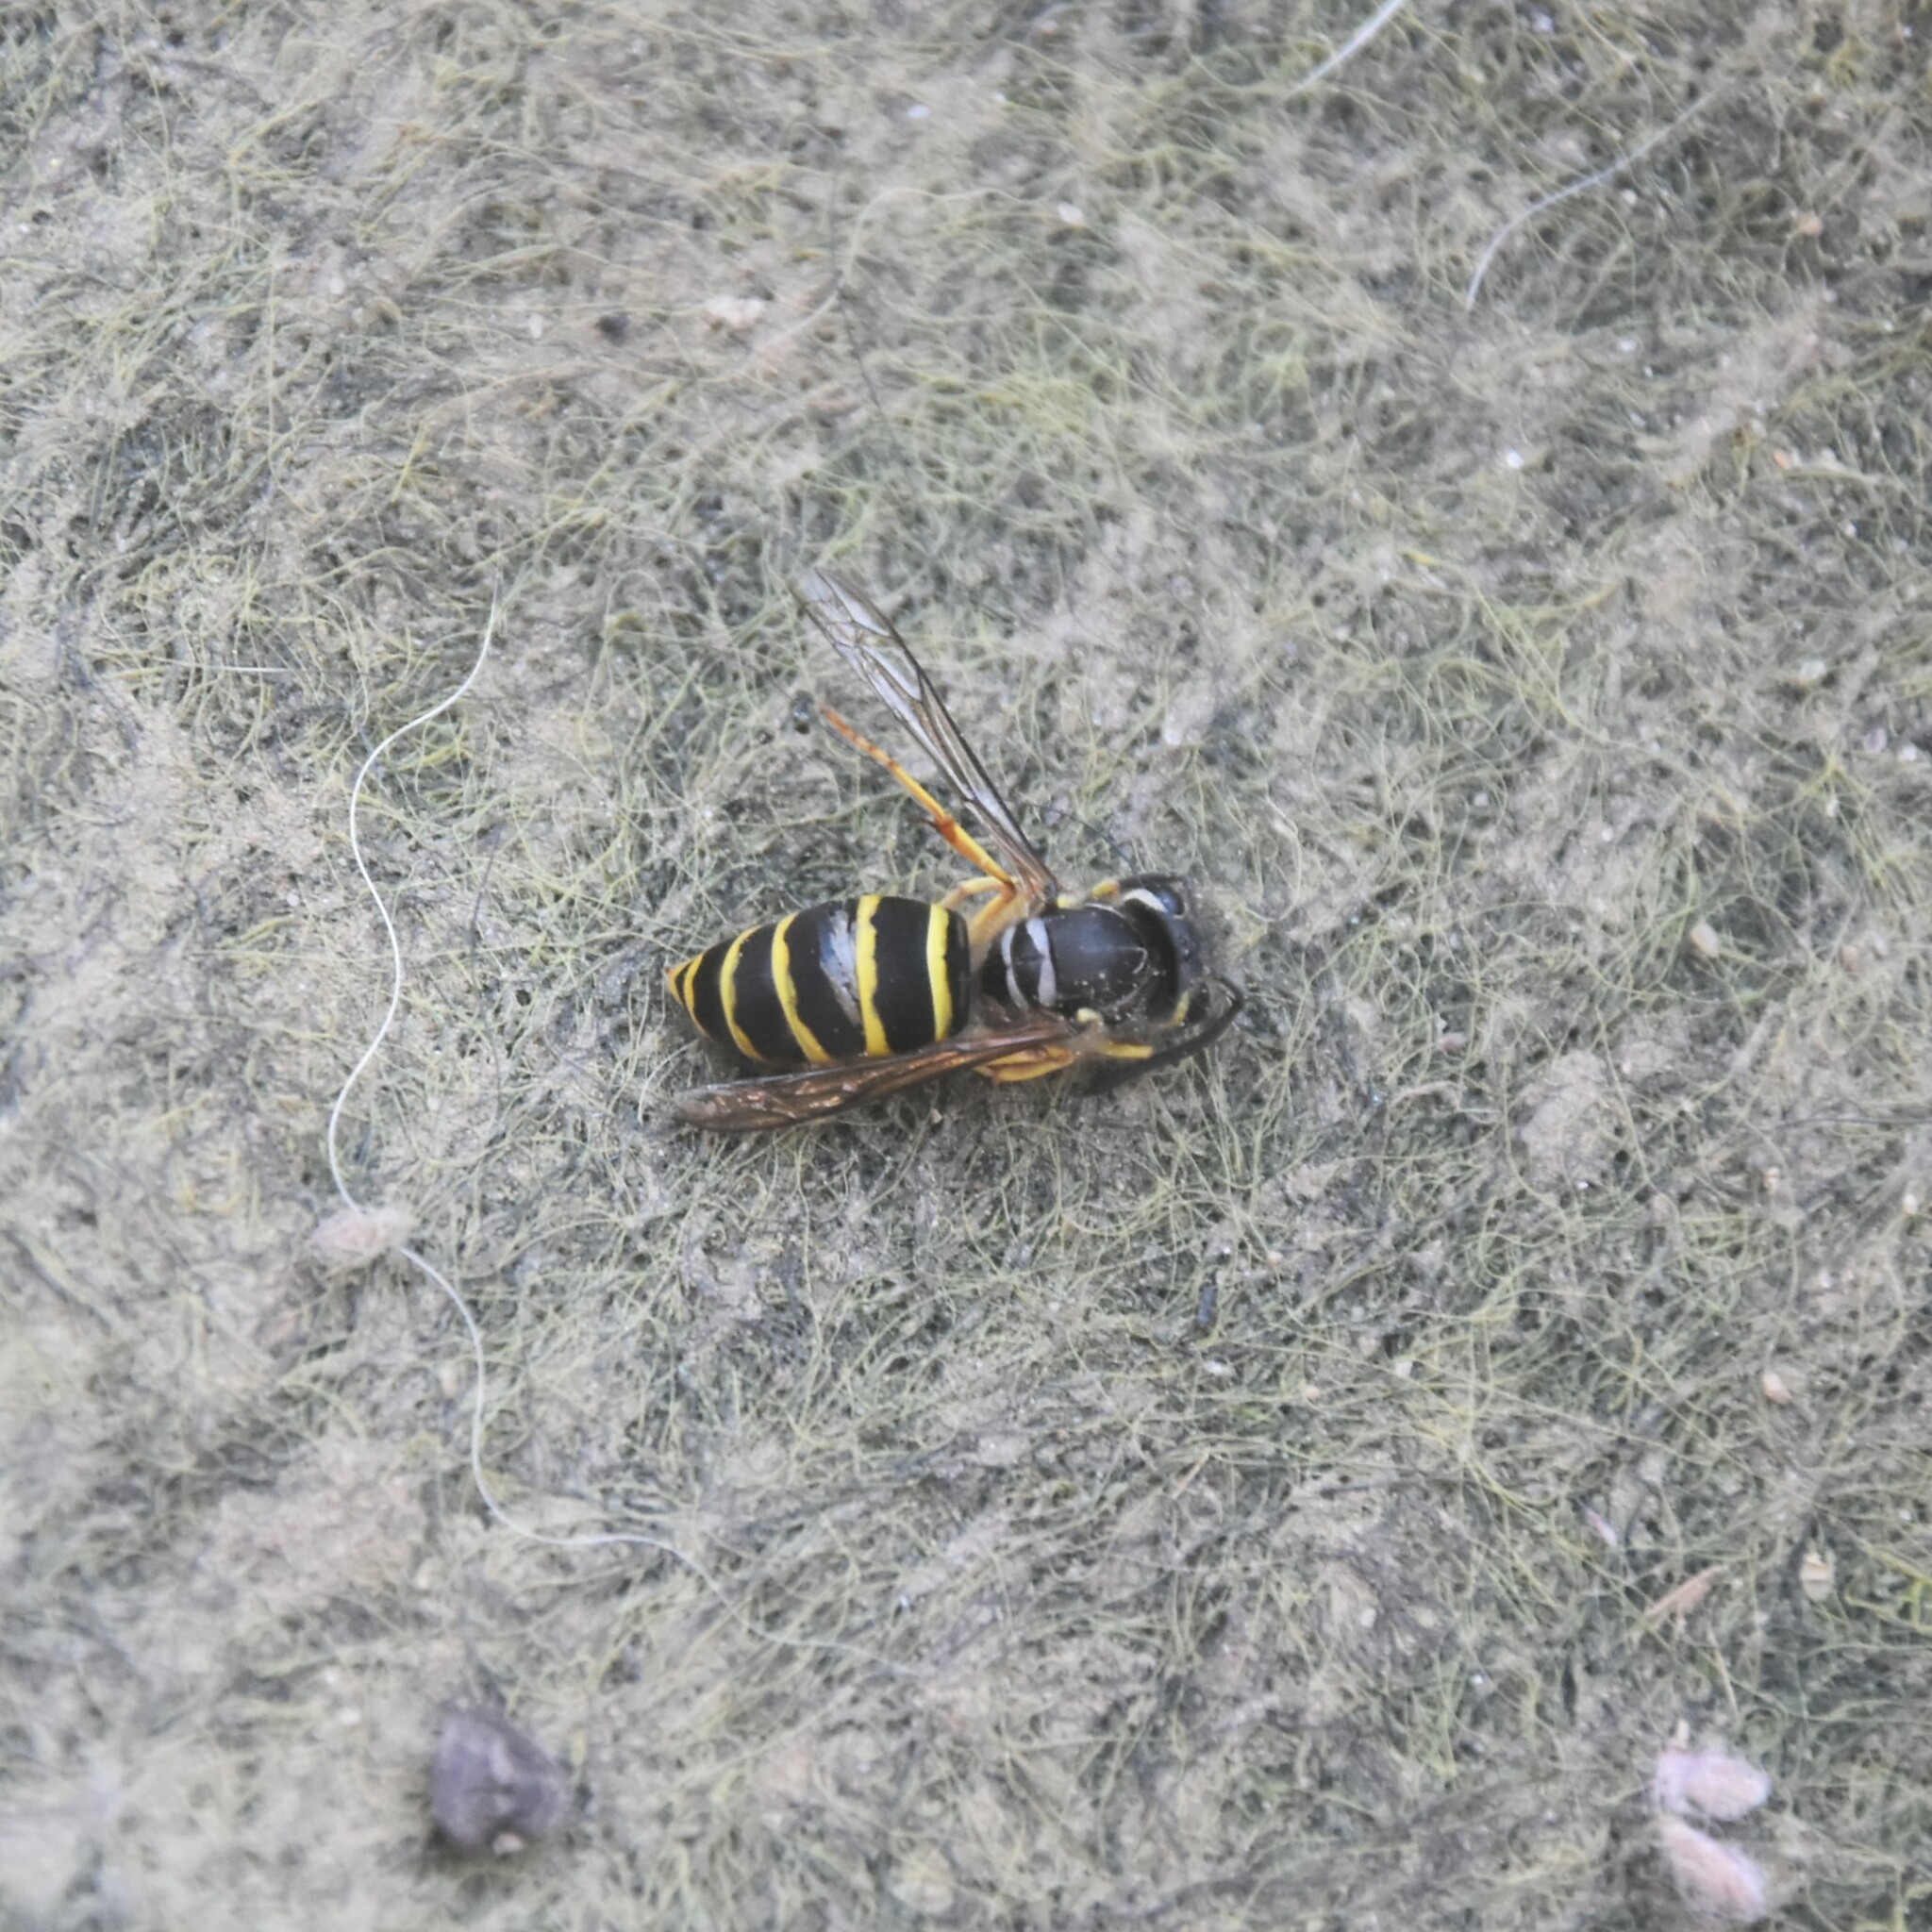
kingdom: Animalia
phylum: Arthropoda
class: Insecta
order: Hymenoptera
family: Vespidae
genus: Vespula
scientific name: Vespula flaviceps
